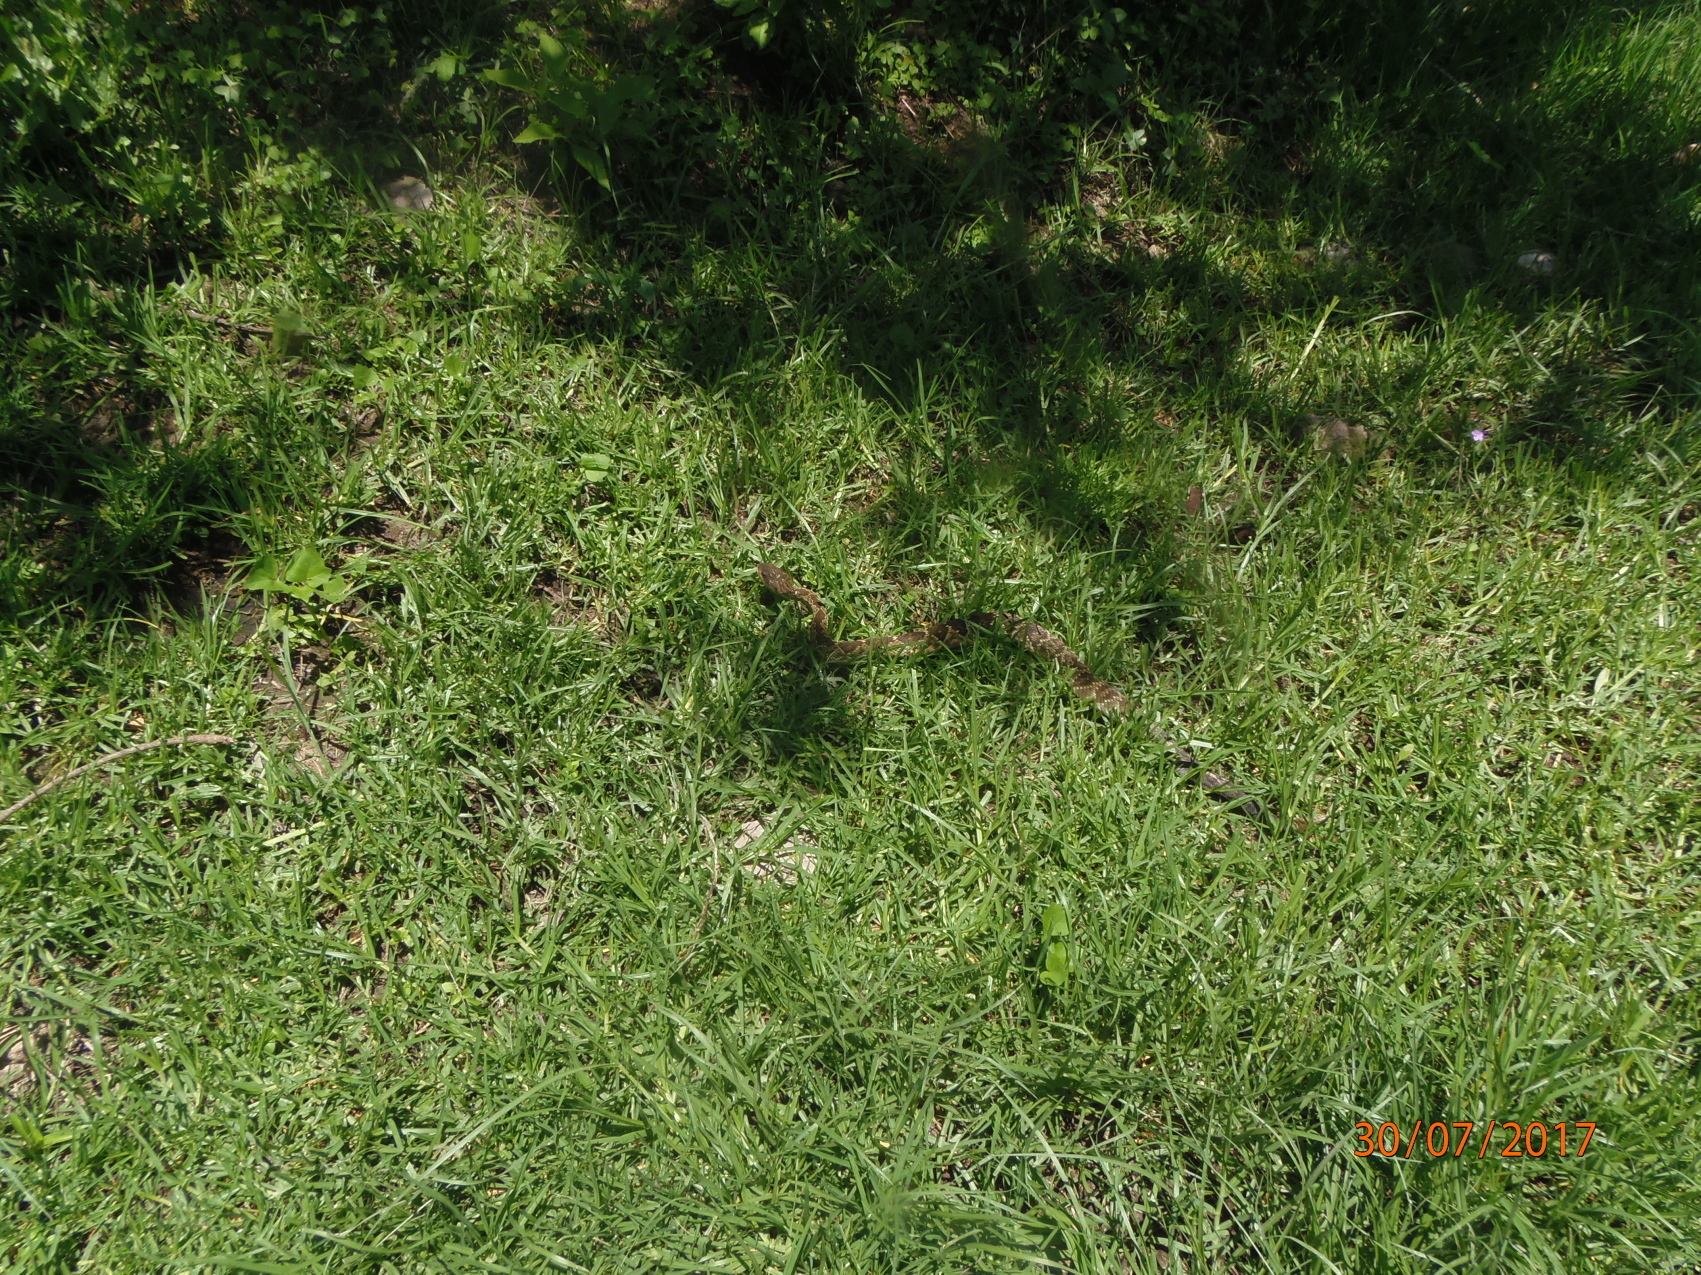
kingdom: Animalia
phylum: Chordata
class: Squamata
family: Viperidae
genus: Crotalus
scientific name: Crotalus molossus
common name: Black tailed rattlesnake
